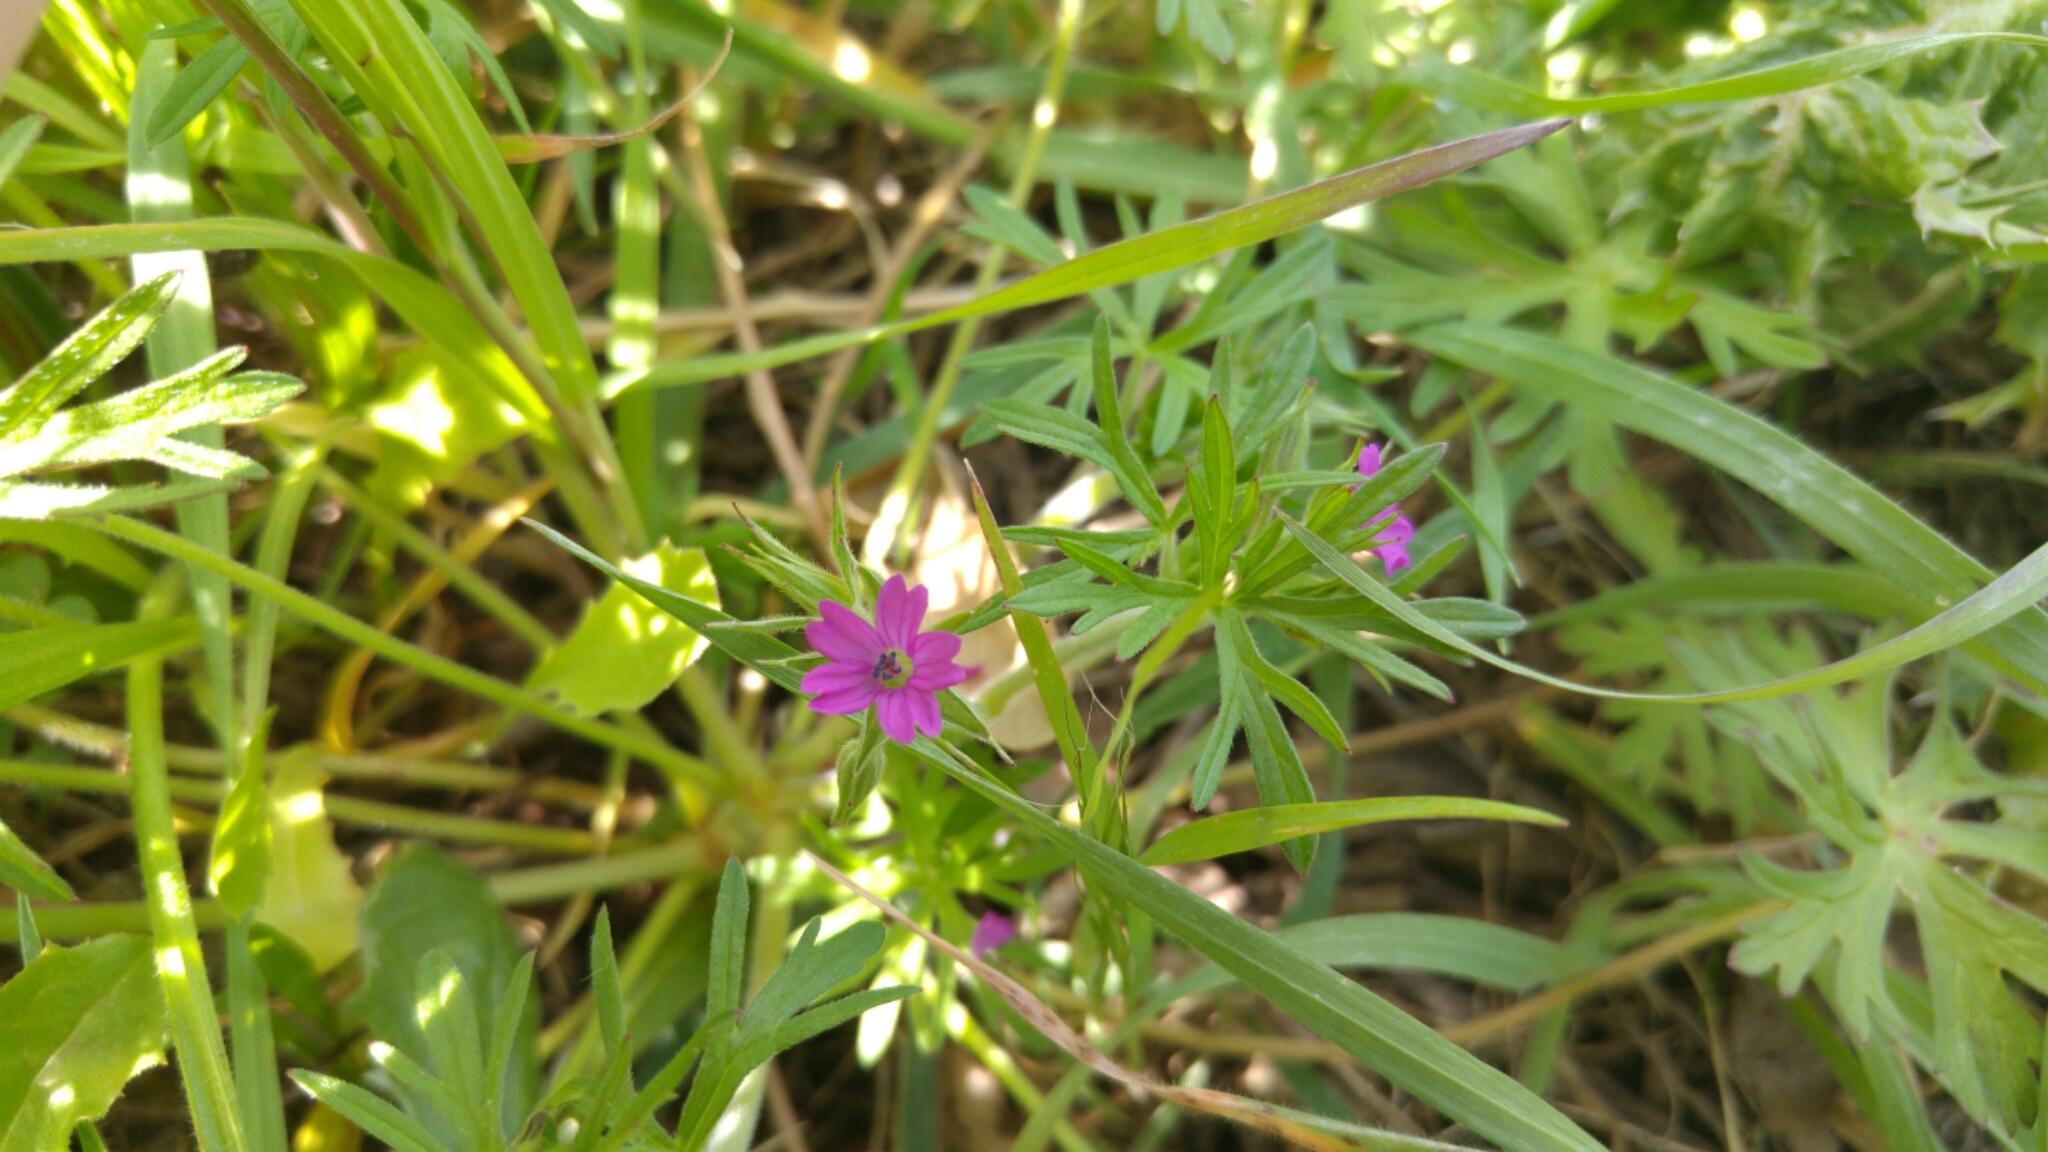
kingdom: Plantae
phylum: Tracheophyta
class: Magnoliopsida
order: Geraniales
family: Geraniaceae
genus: Geranium
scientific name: Geranium dissectum
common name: Cut-leaved crane's-bill
